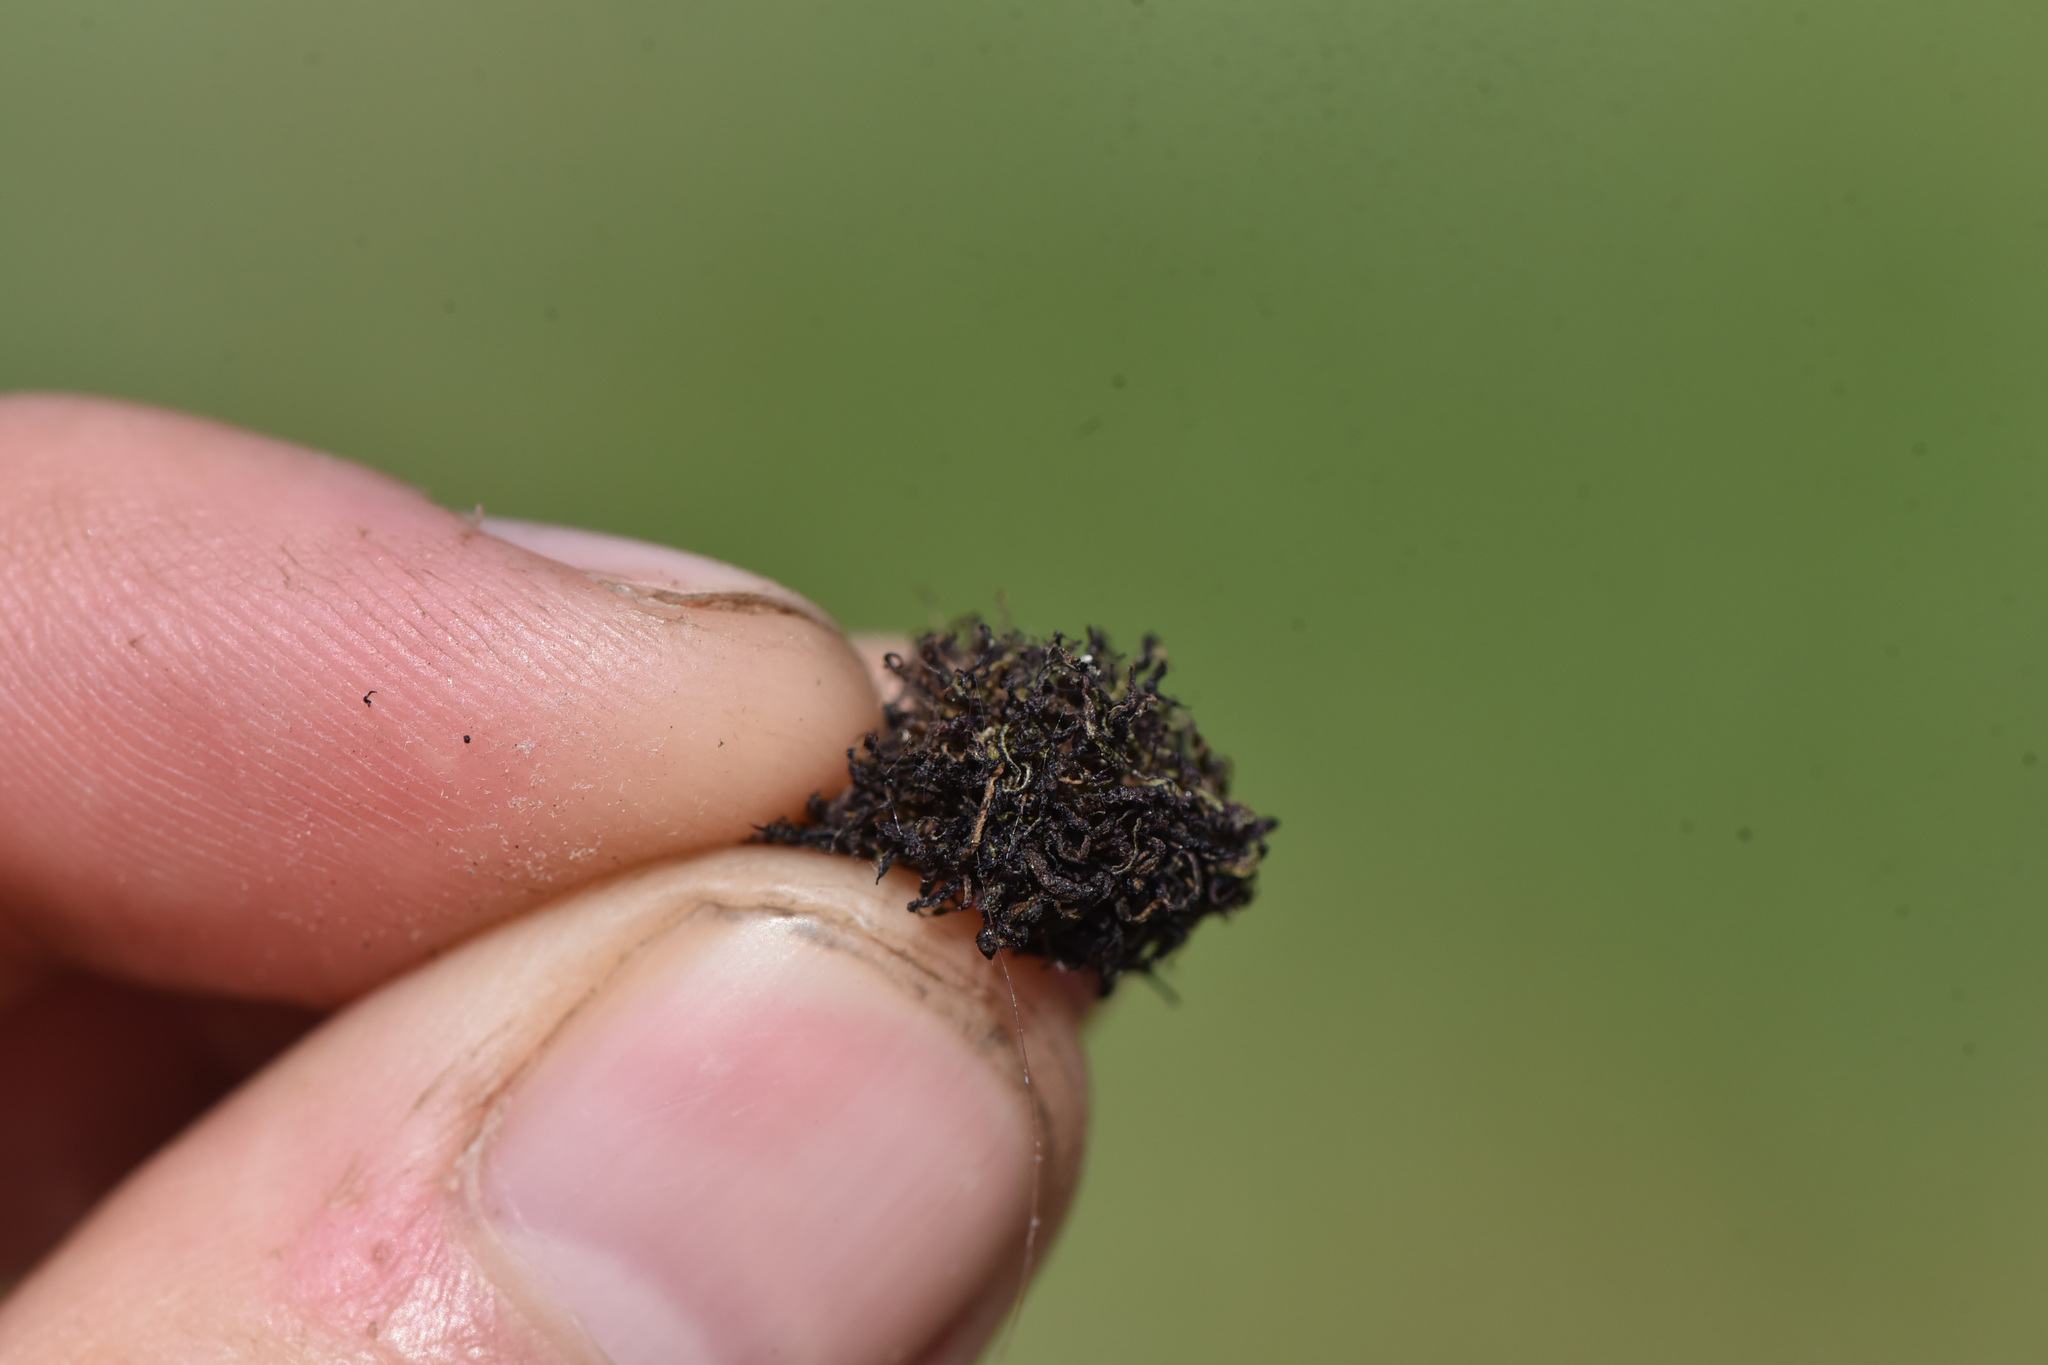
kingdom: Animalia
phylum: Arthropoda
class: Insecta
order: Diptera
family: Cecidomyiidae
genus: Rhopalomyia
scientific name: Rhopalomyia medusa
